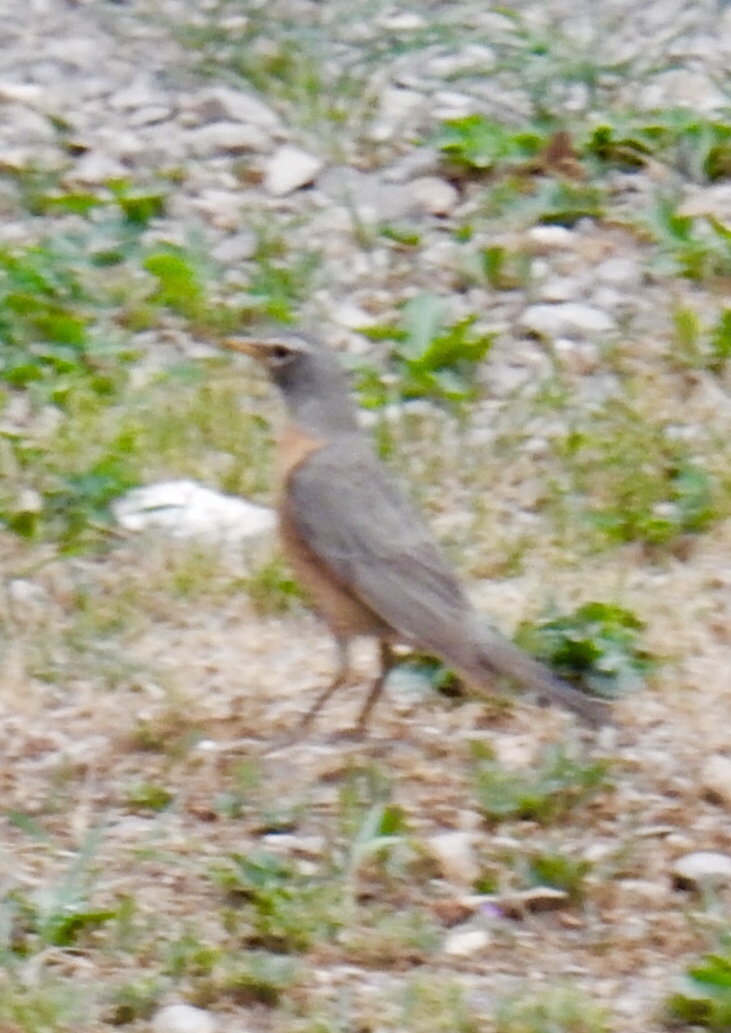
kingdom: Animalia
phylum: Chordata
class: Aves
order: Passeriformes
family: Turdidae
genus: Turdus
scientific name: Turdus migratorius
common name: American robin
